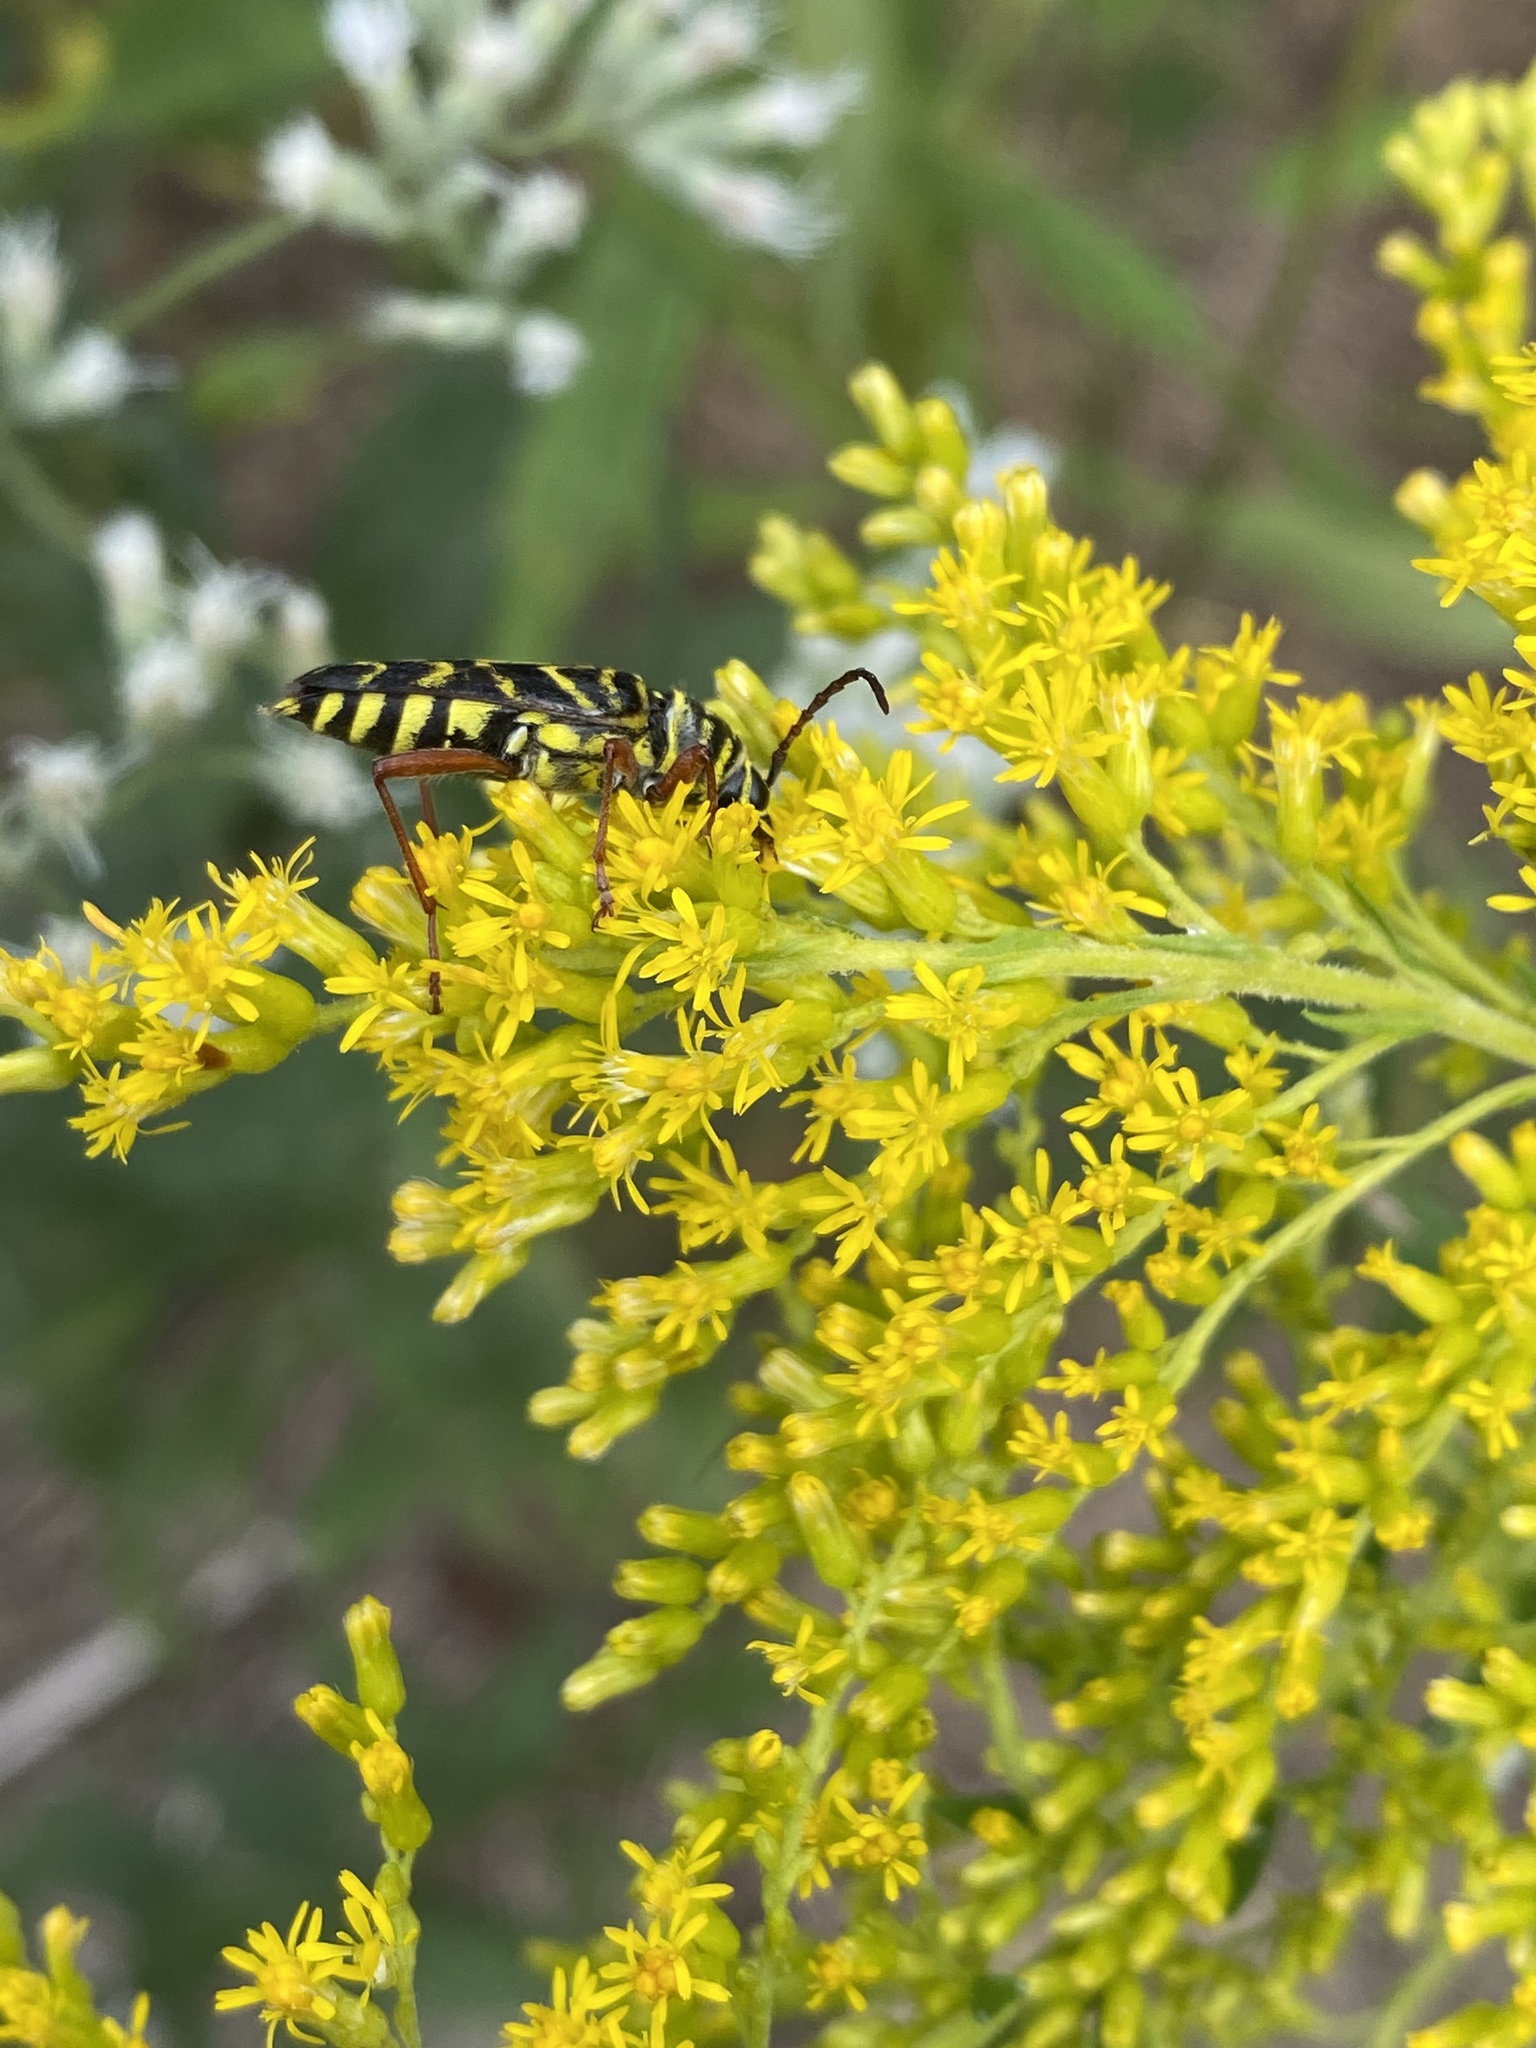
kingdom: Animalia
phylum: Arthropoda
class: Insecta
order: Coleoptera
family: Cerambycidae
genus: Megacyllene
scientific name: Megacyllene robiniae
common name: Locust borer
